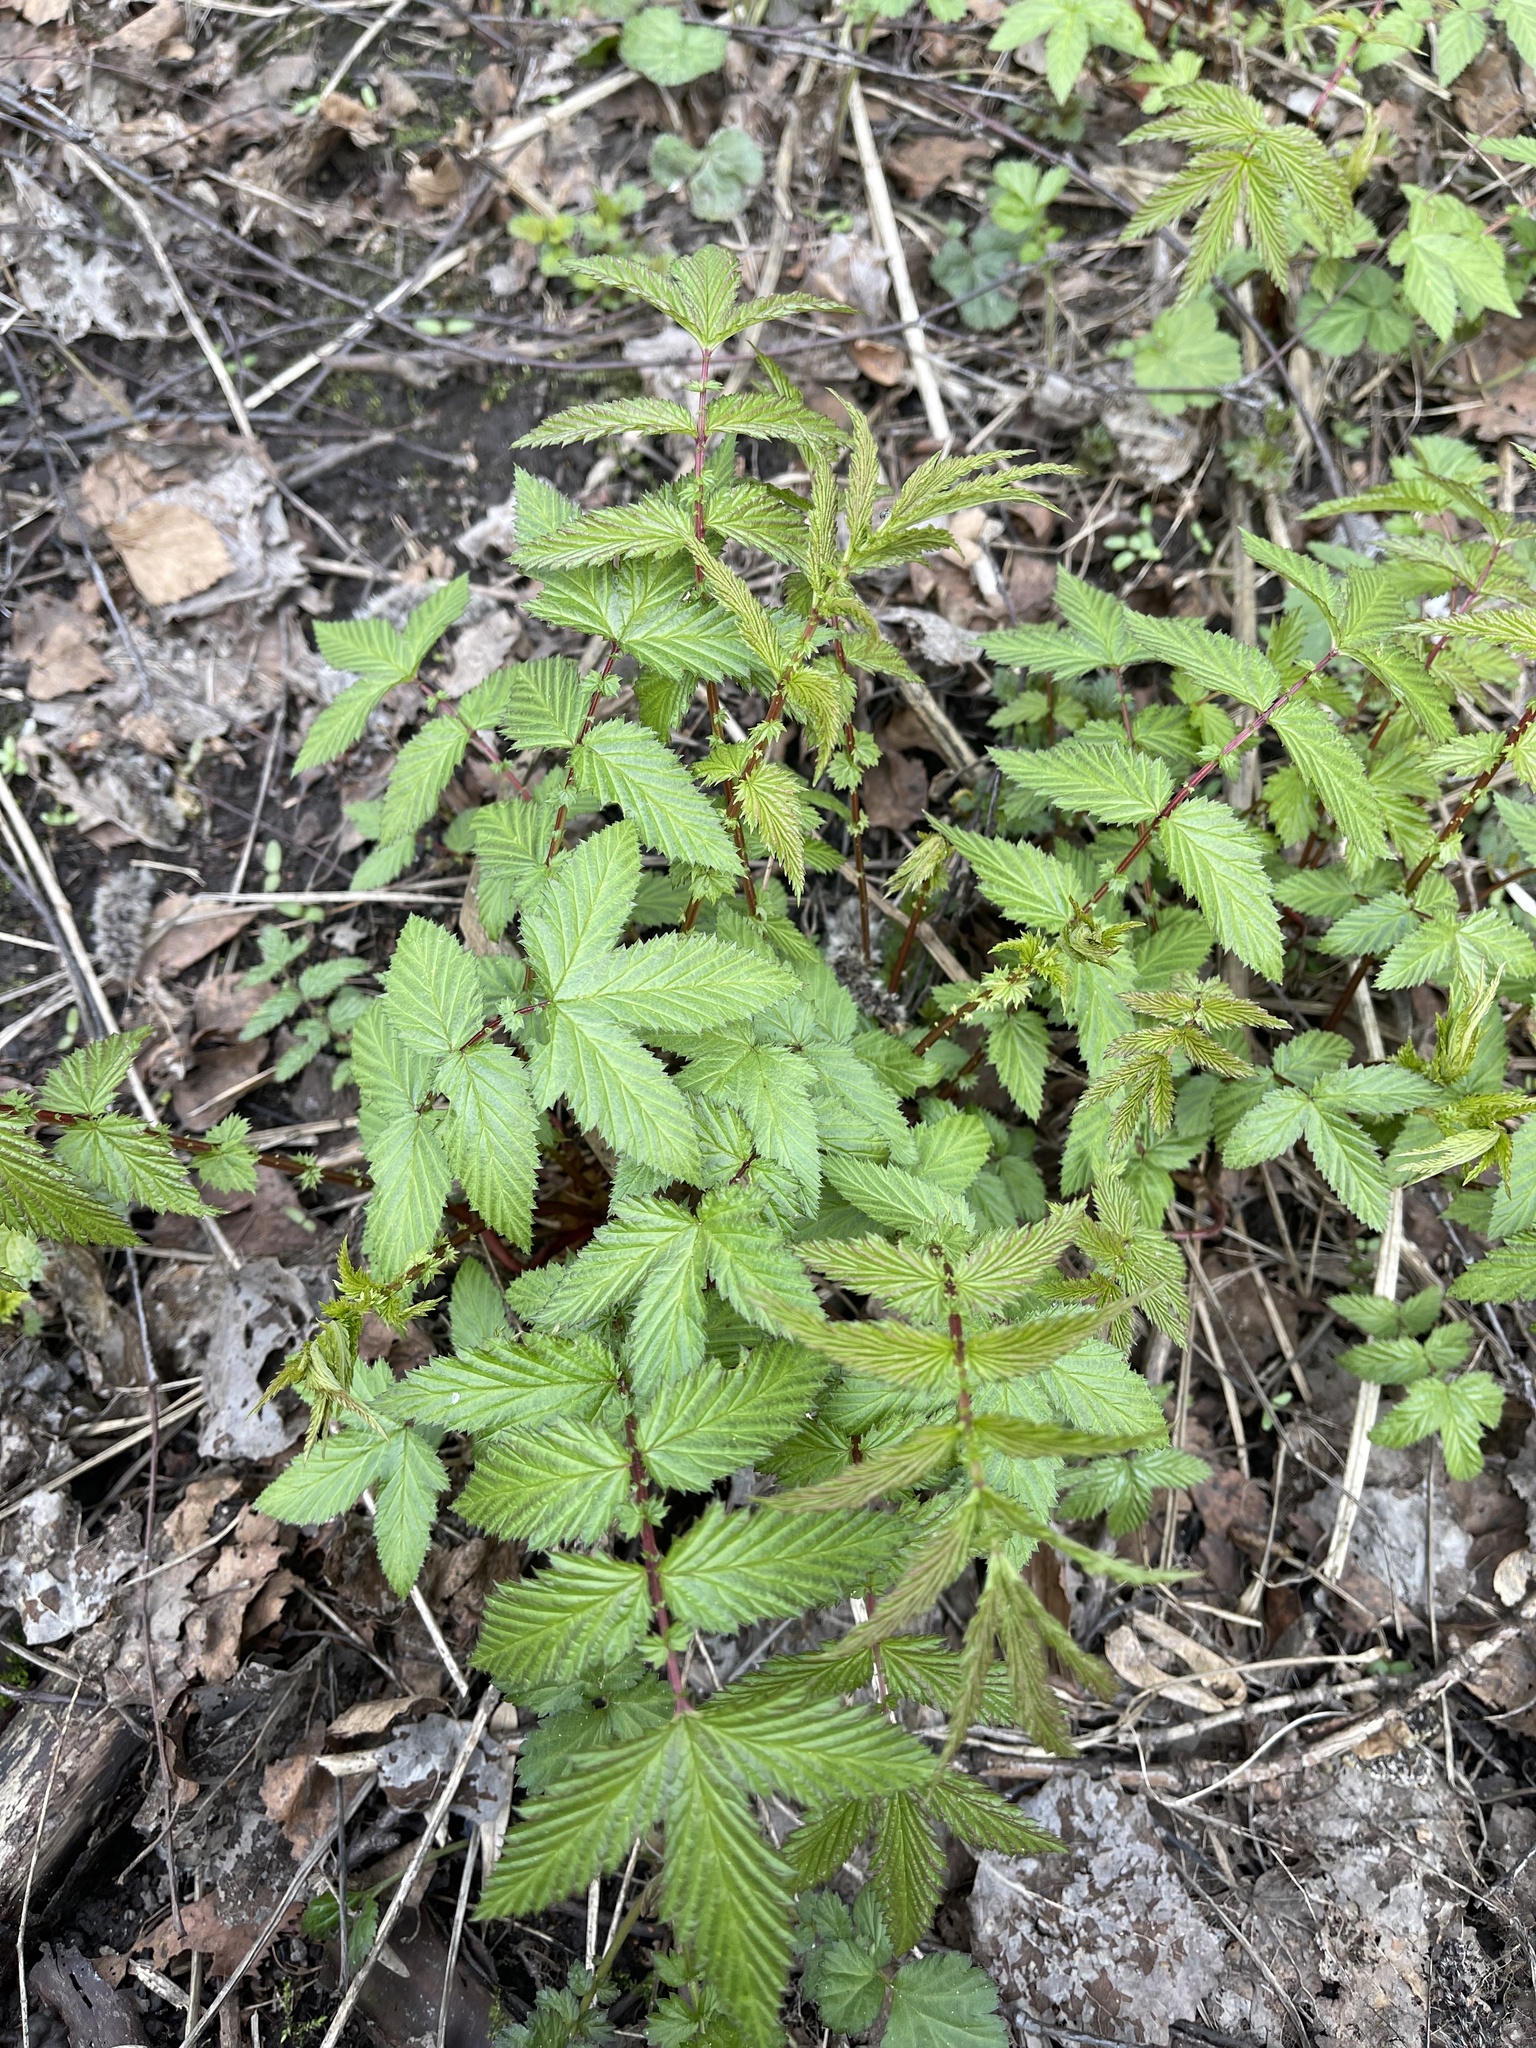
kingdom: Plantae
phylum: Tracheophyta
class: Magnoliopsida
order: Rosales
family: Rosaceae
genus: Filipendula
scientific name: Filipendula ulmaria
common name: Meadowsweet
